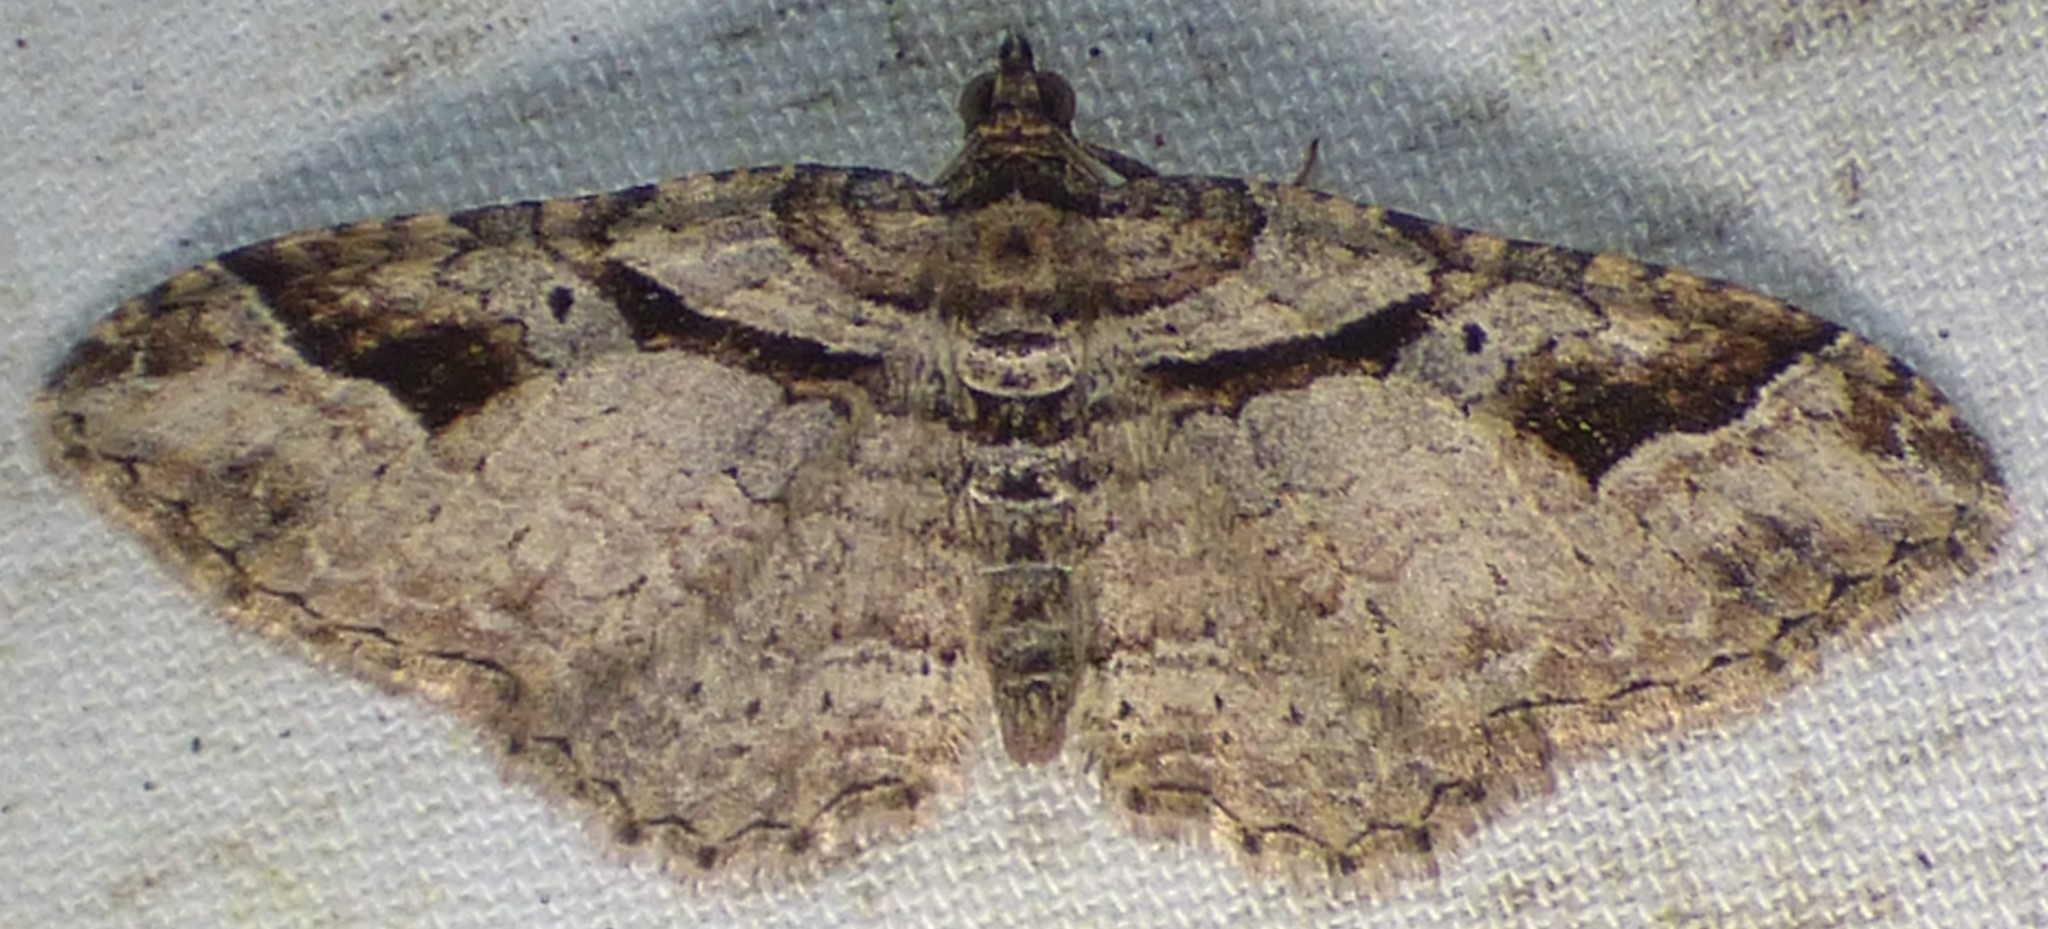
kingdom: Animalia
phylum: Arthropoda
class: Insecta
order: Lepidoptera
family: Geometridae
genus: Costaconvexa
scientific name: Costaconvexa centrostrigaria
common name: Bent-line carpet
